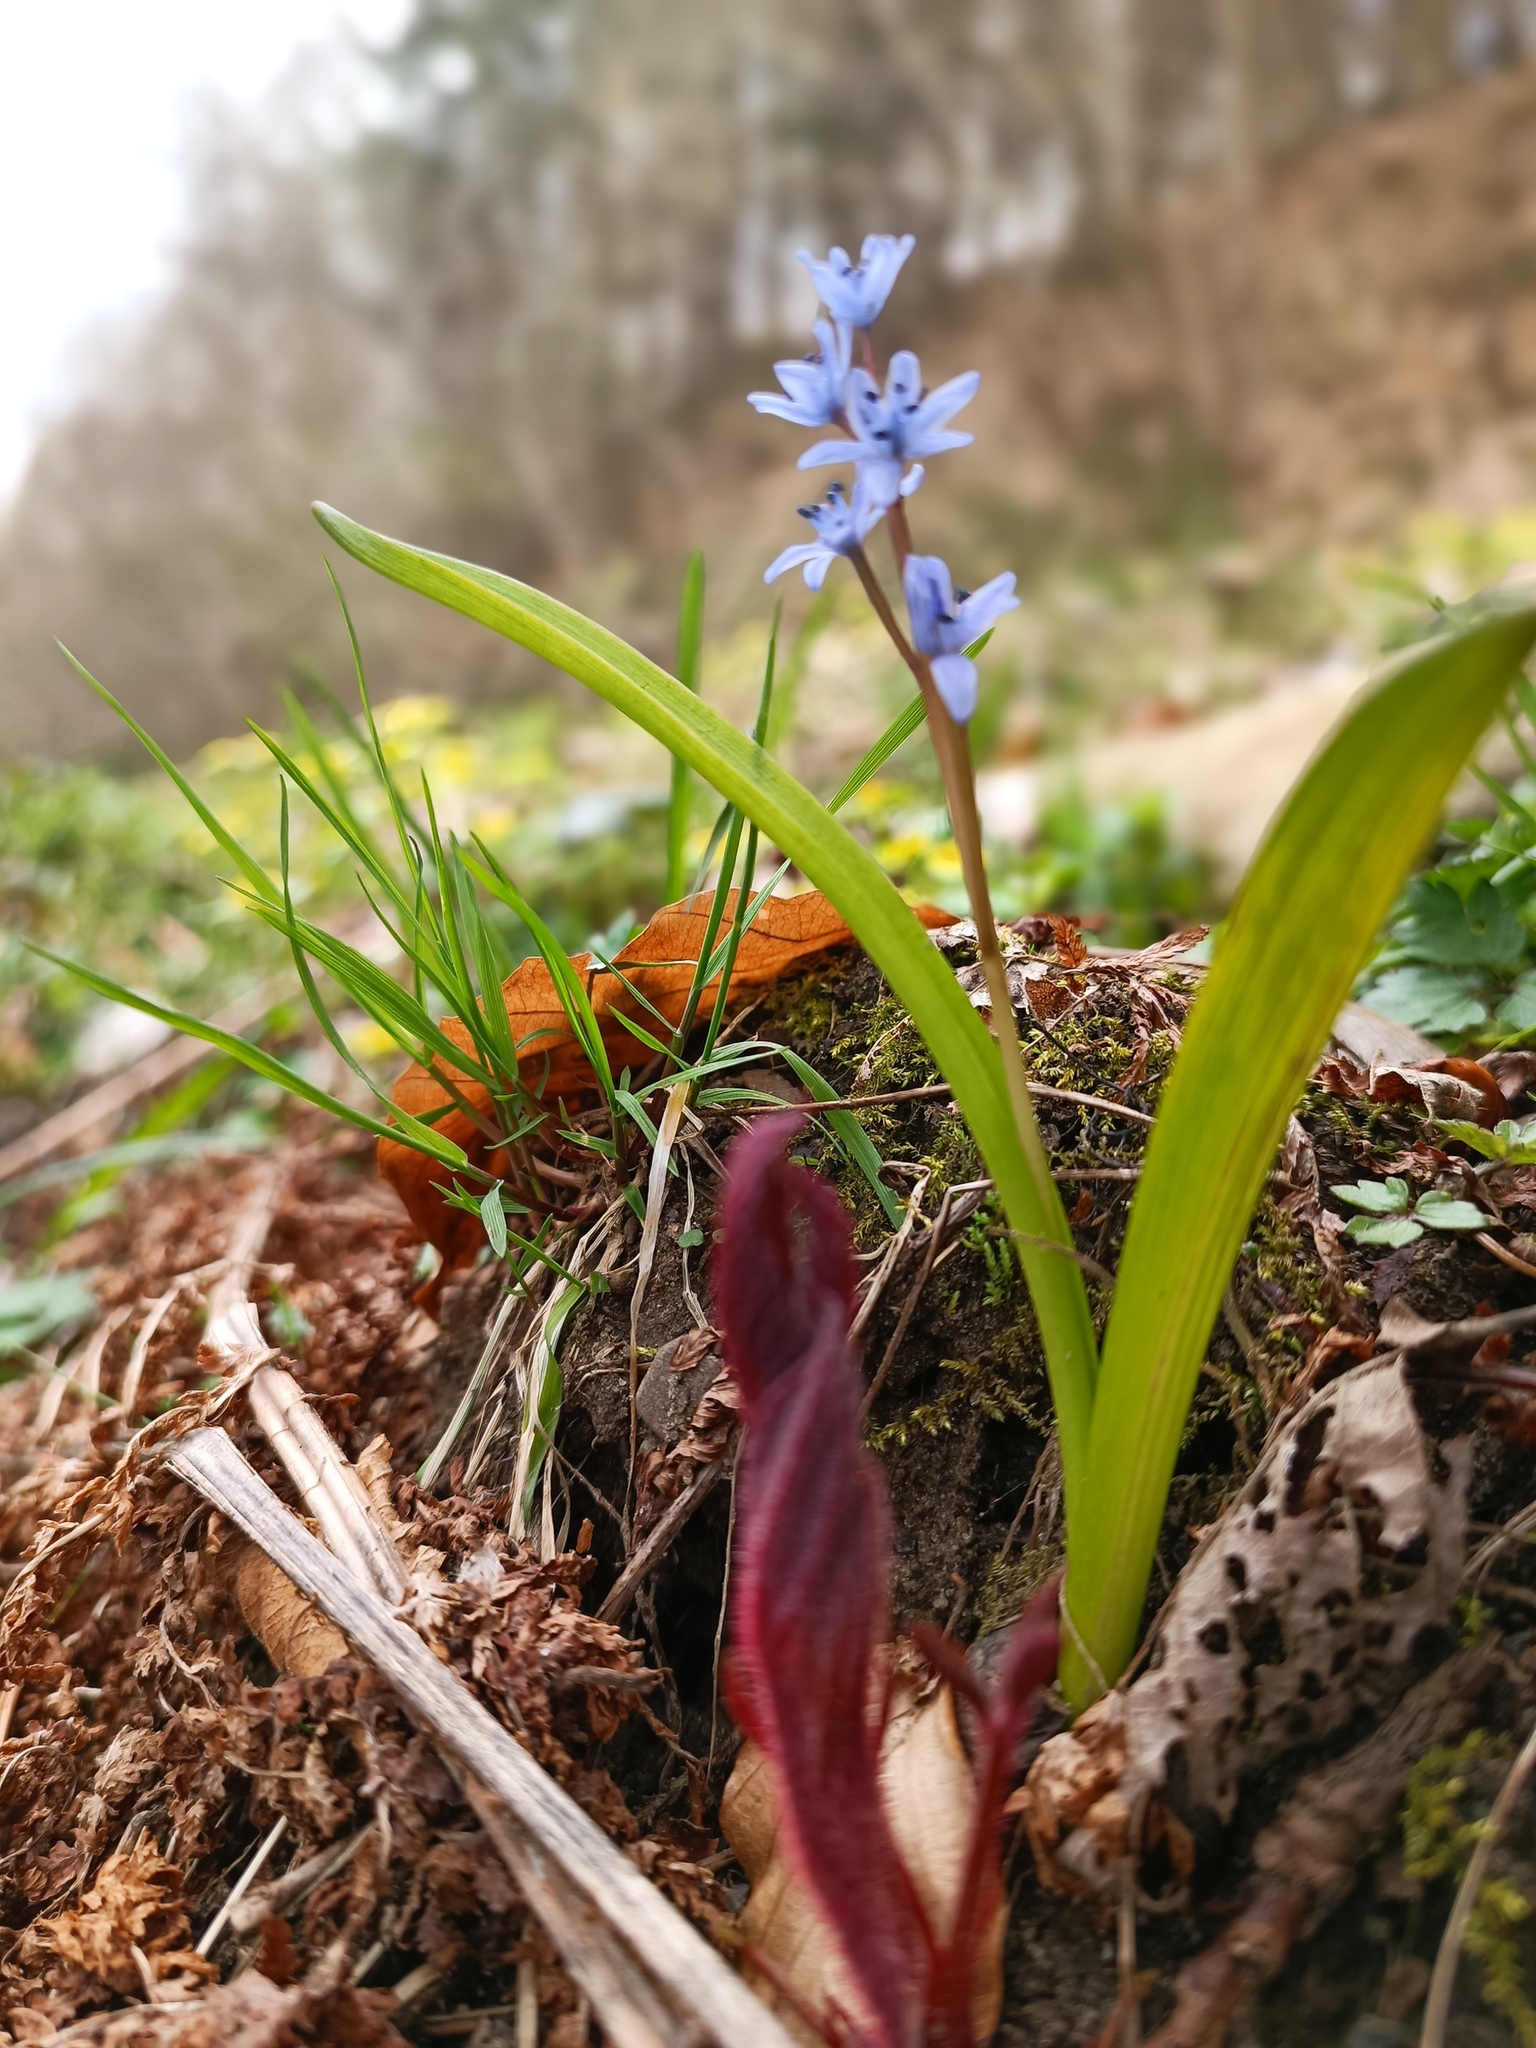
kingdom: Plantae
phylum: Tracheophyta
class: Liliopsida
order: Asparagales
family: Asparagaceae
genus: Scilla
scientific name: Scilla bifolia
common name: Alpine squill
